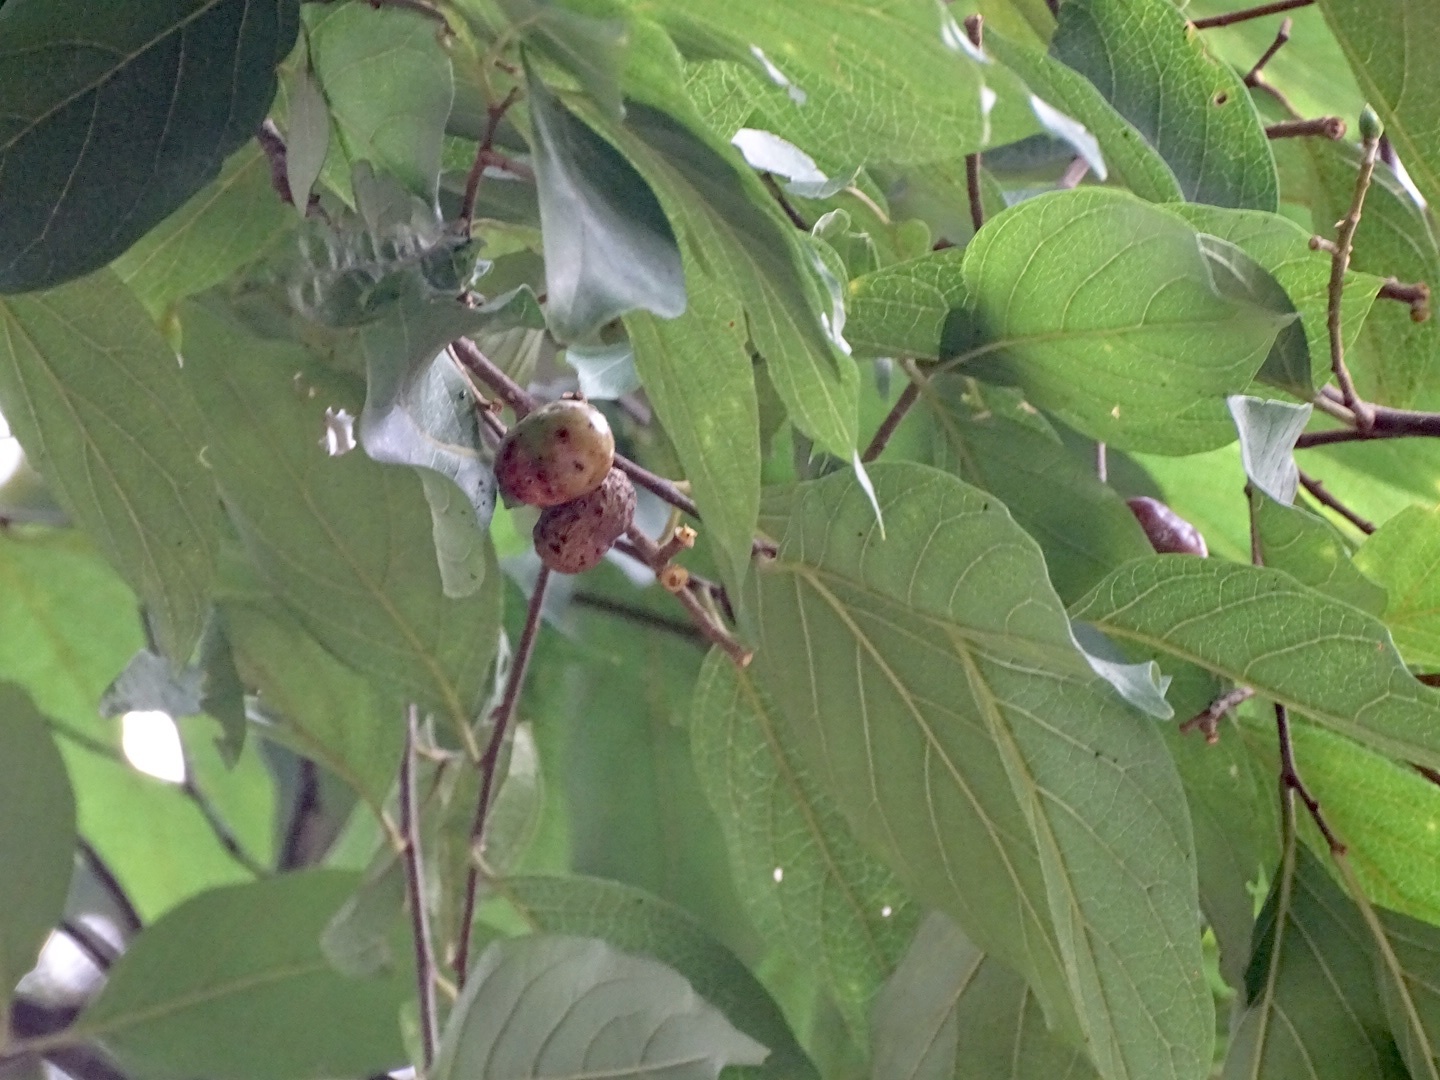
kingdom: Plantae
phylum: Tracheophyta
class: Magnoliopsida
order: Rosales
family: Rosaceae
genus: Prunus
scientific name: Prunus arborea
